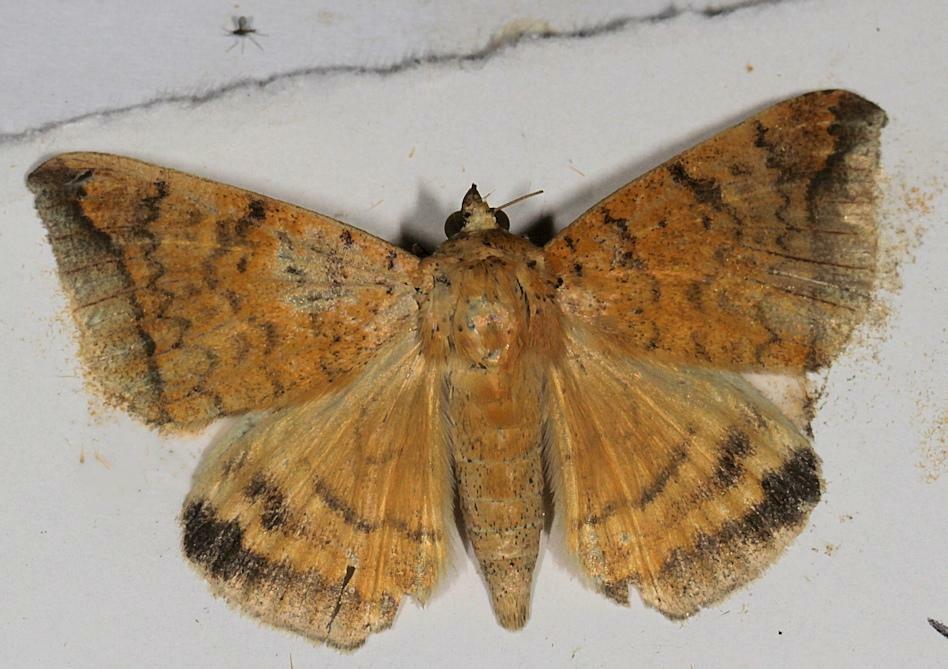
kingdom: Animalia
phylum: Arthropoda
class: Insecta
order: Lepidoptera
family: Erebidae
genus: Ophisma
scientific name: Ophisma albitermia
